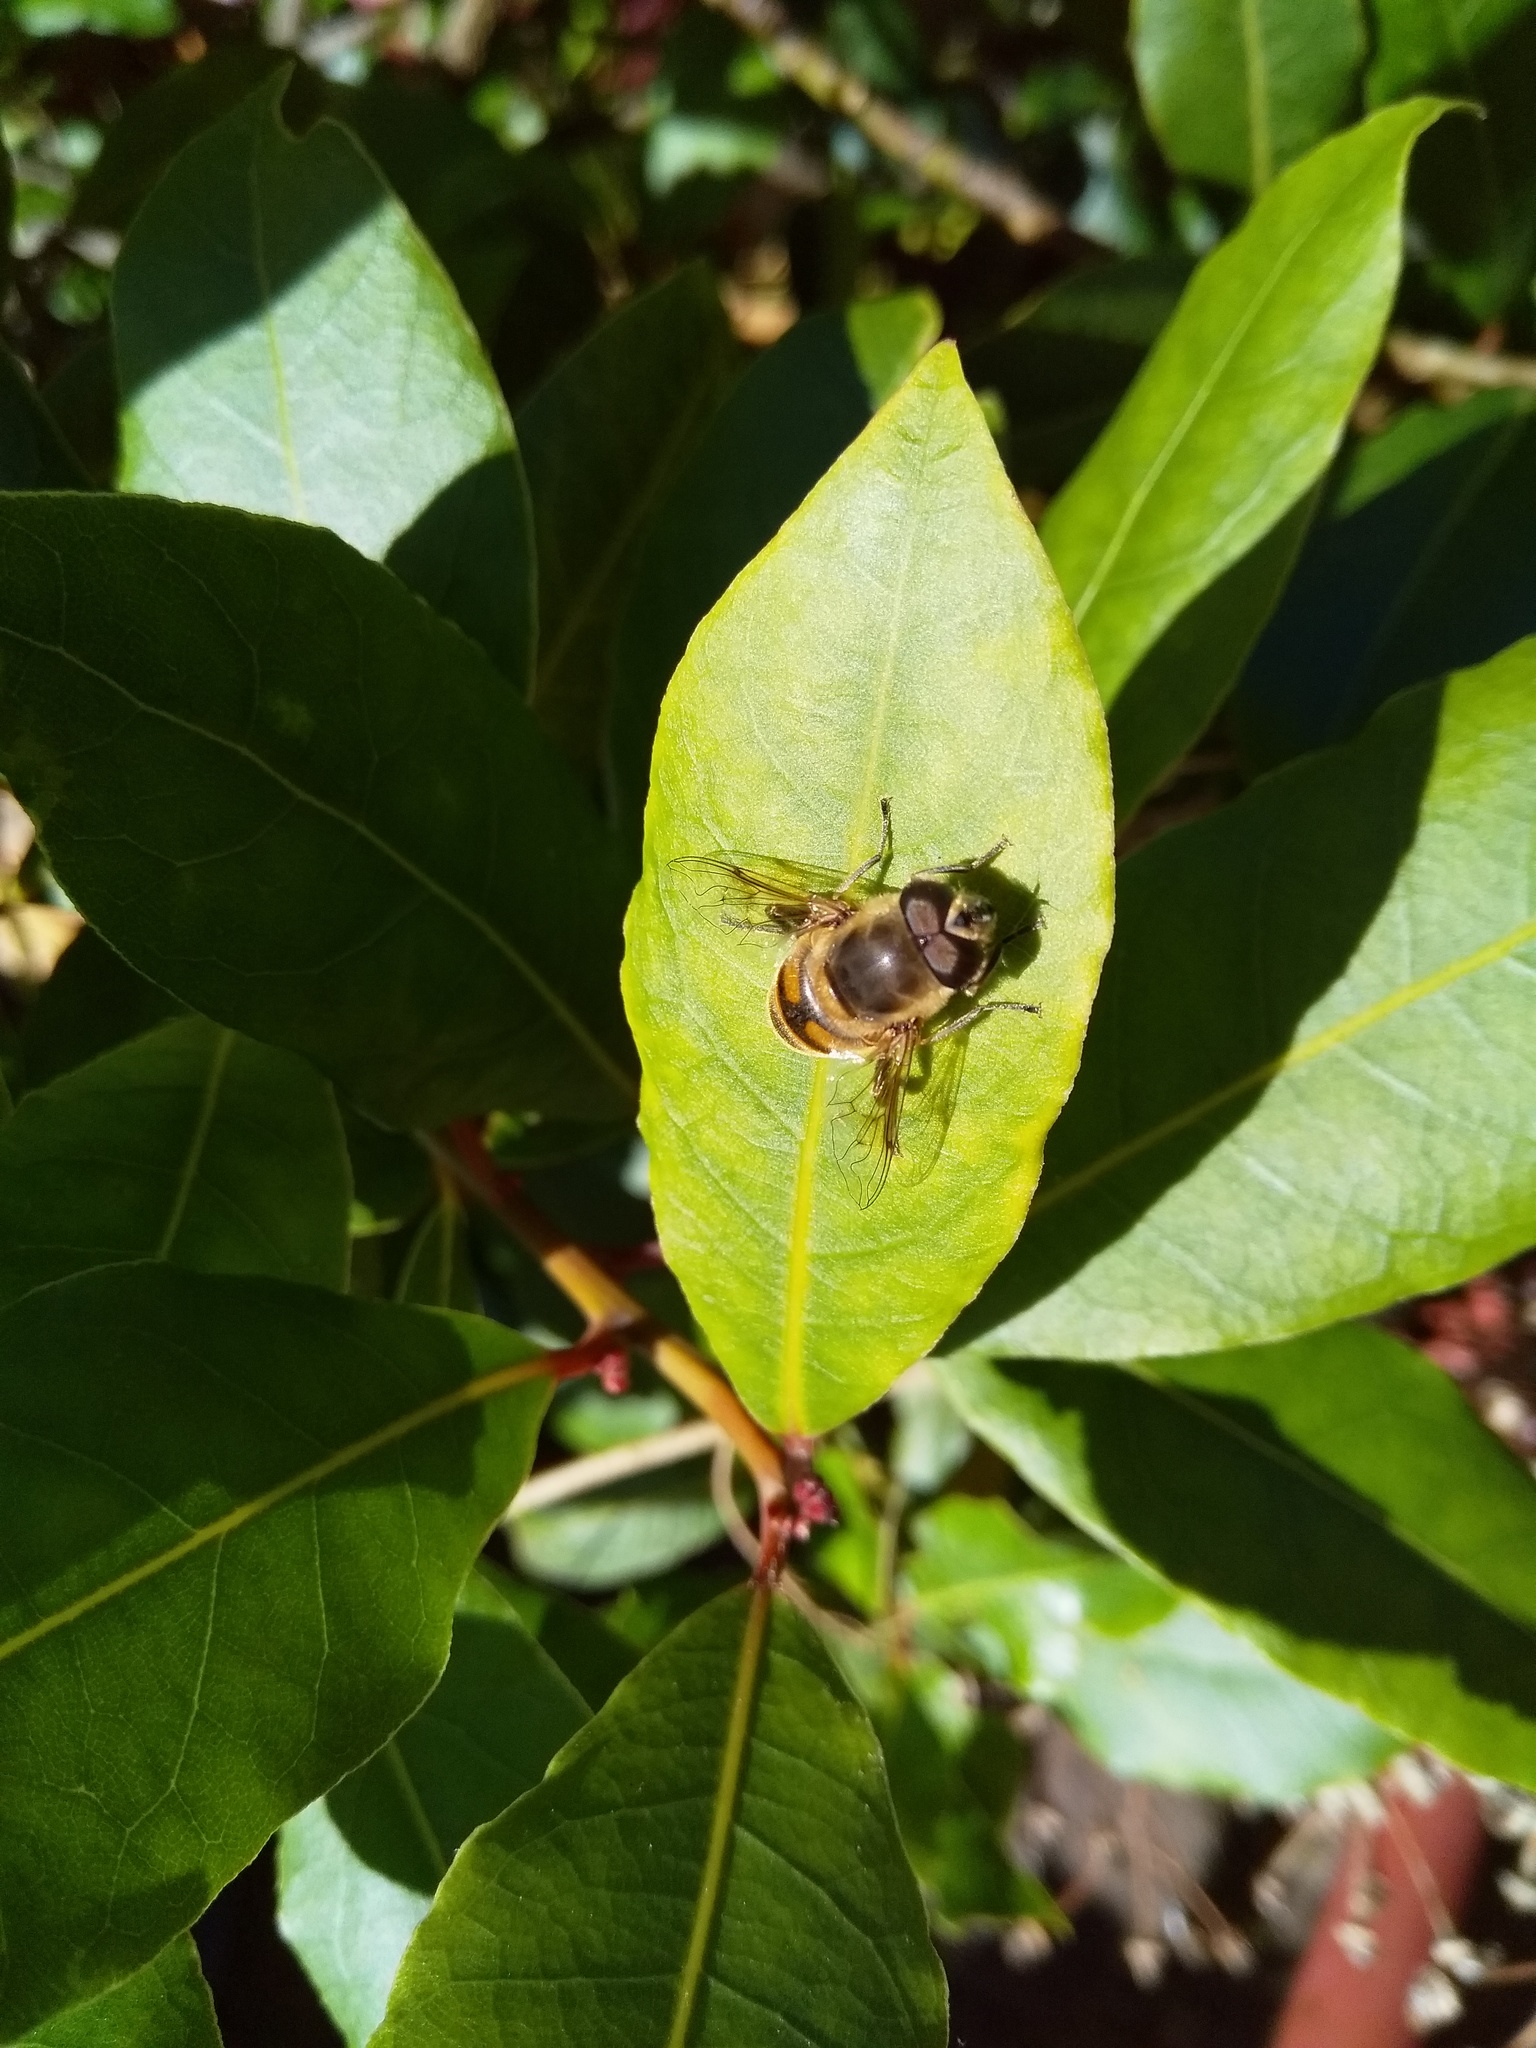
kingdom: Animalia
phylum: Arthropoda
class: Insecta
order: Diptera
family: Syrphidae
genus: Eristalis
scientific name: Eristalis tenax
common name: Drone fly
